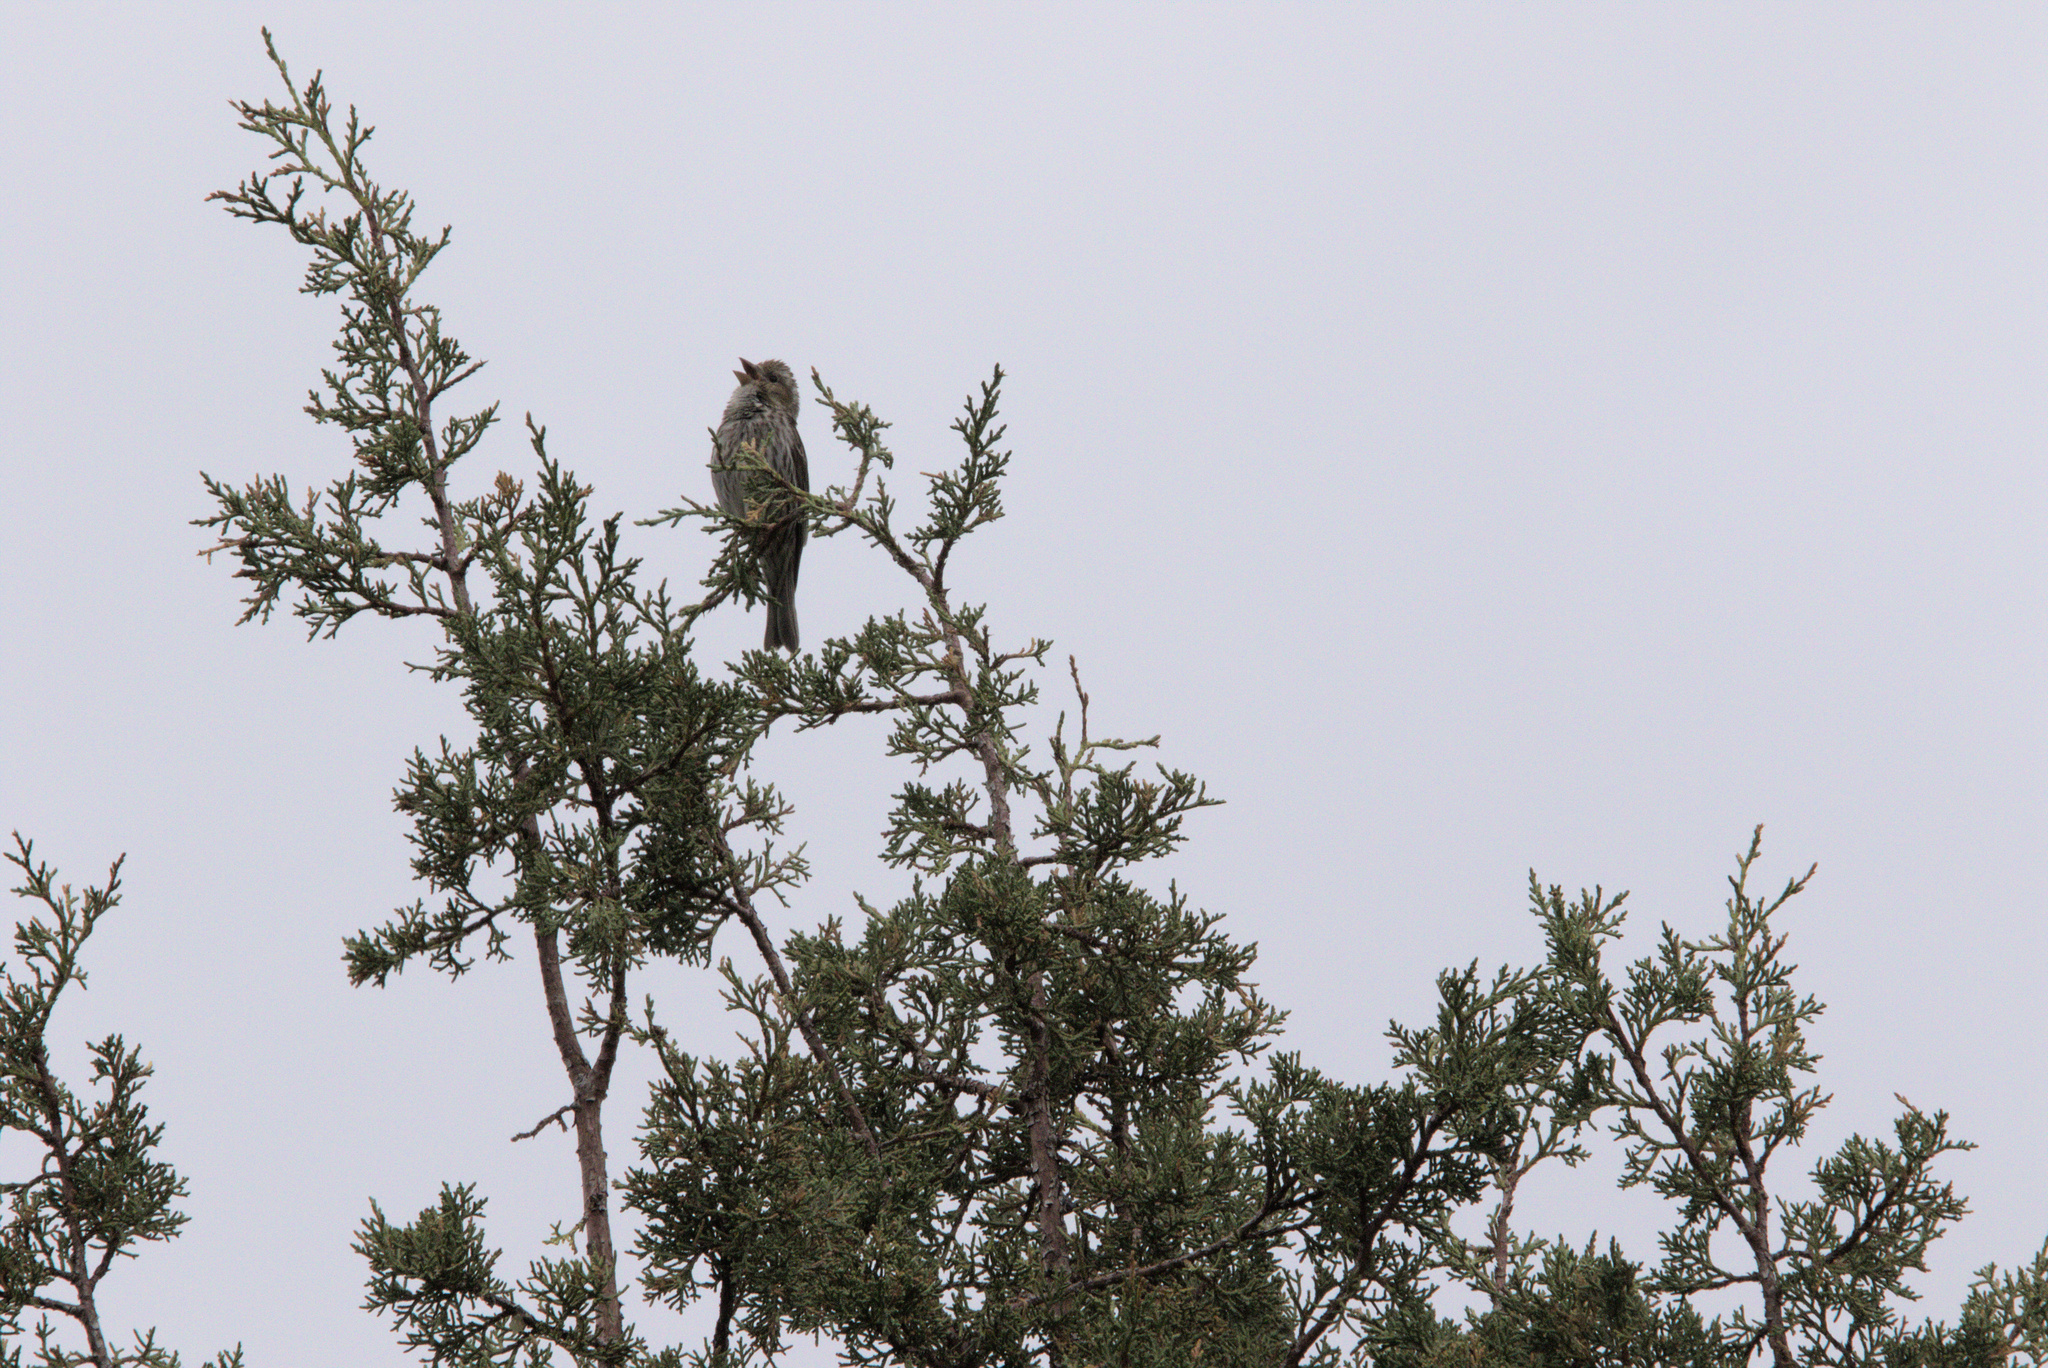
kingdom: Animalia
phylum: Chordata
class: Aves
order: Passeriformes
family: Fringillidae
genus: Haemorhous
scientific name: Haemorhous cassinii
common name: Cassin's finch
